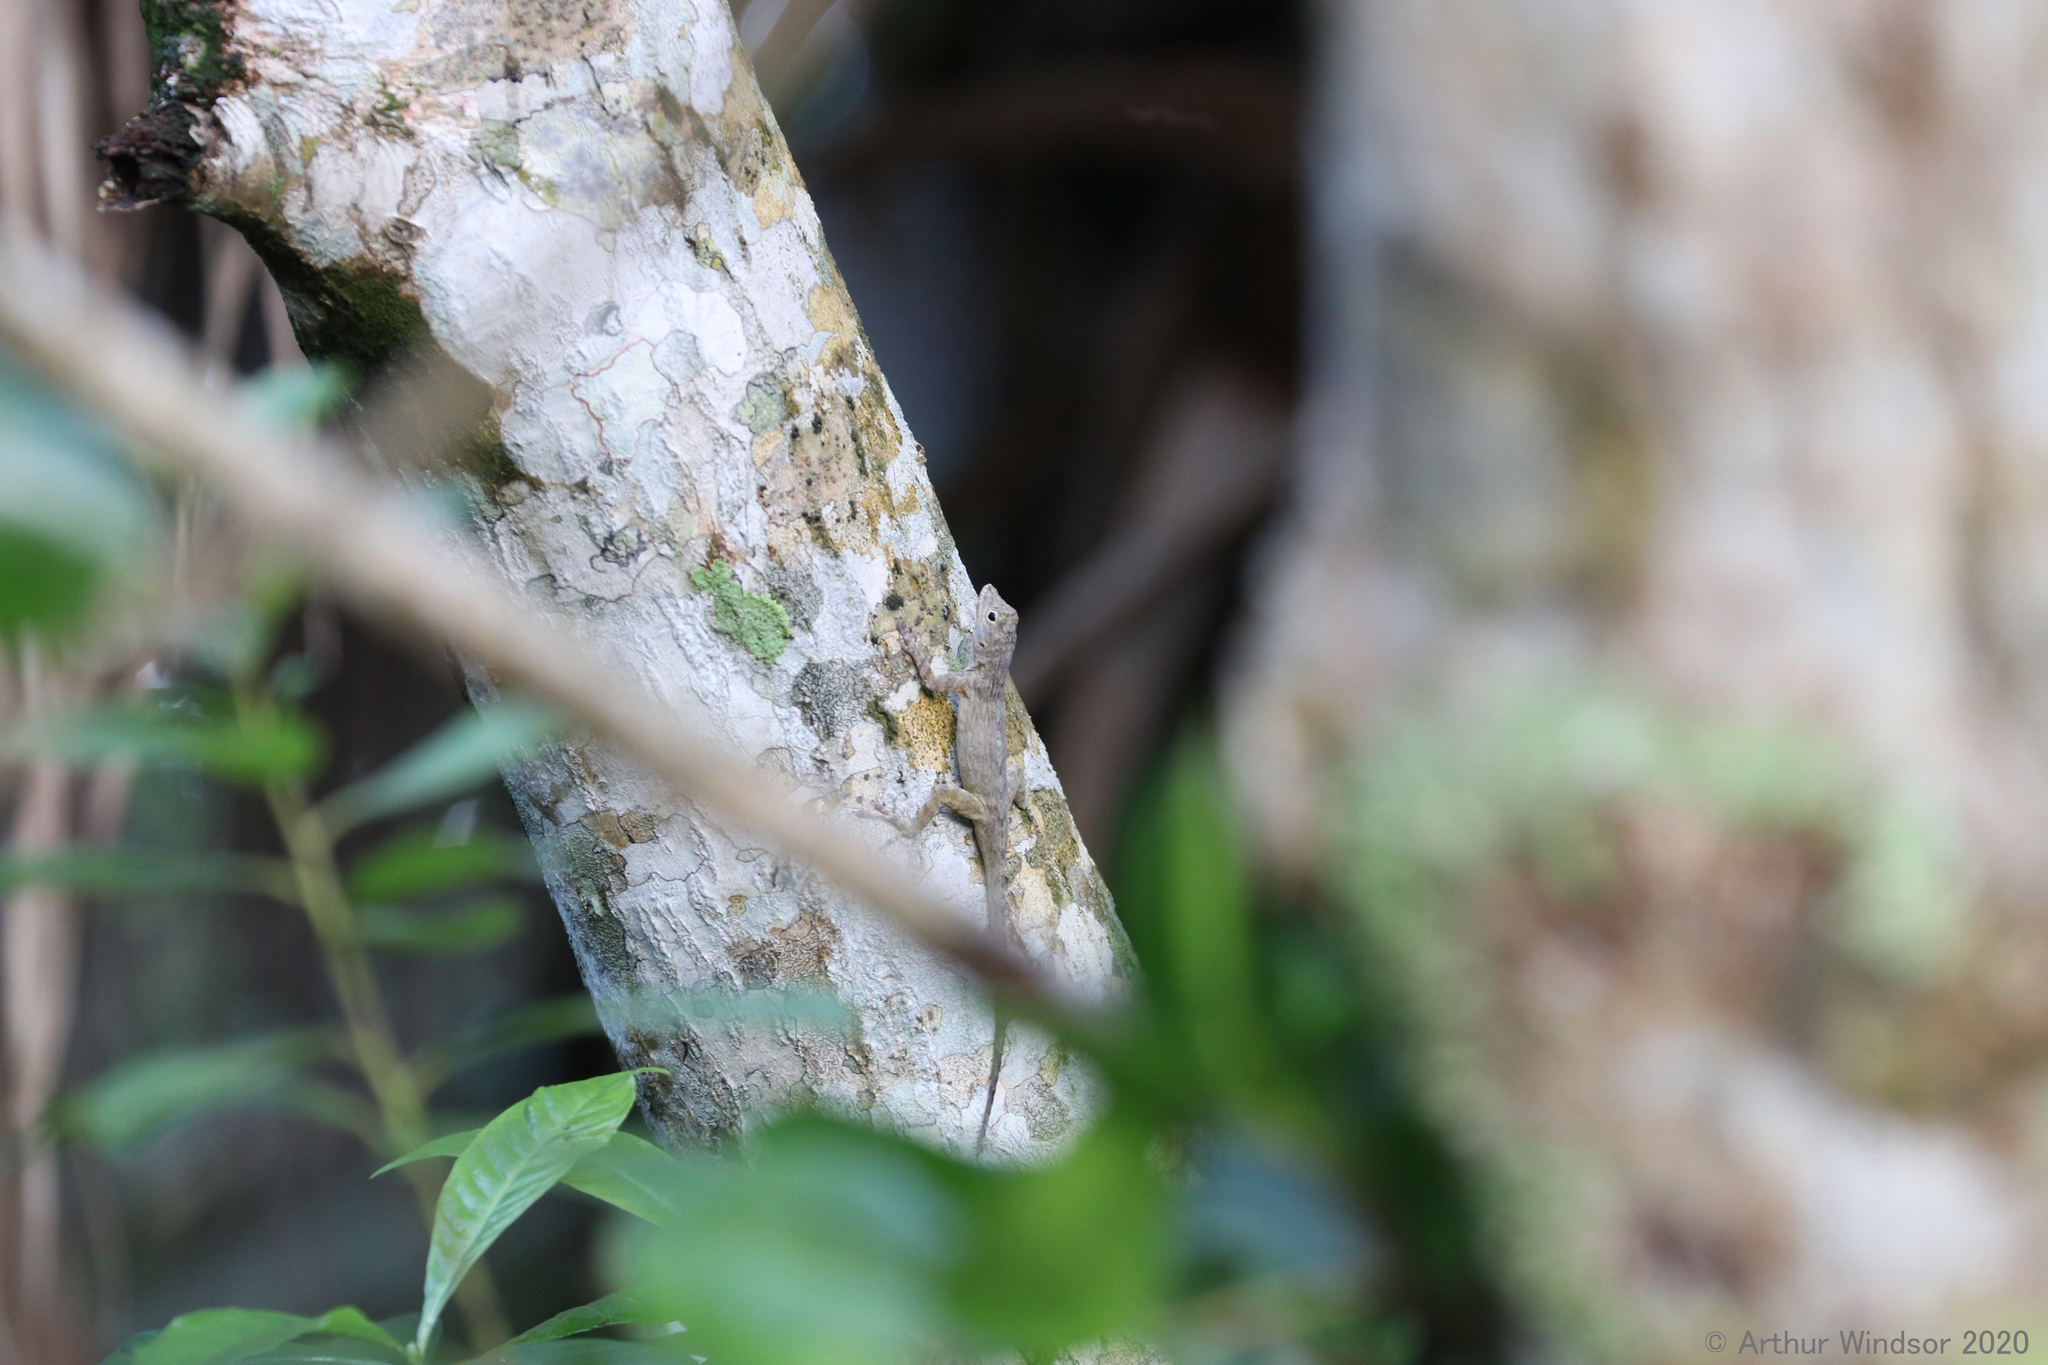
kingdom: Animalia
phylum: Chordata
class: Squamata
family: Dactyloidae
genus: Anolis
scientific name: Anolis distichus
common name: Bark anole
